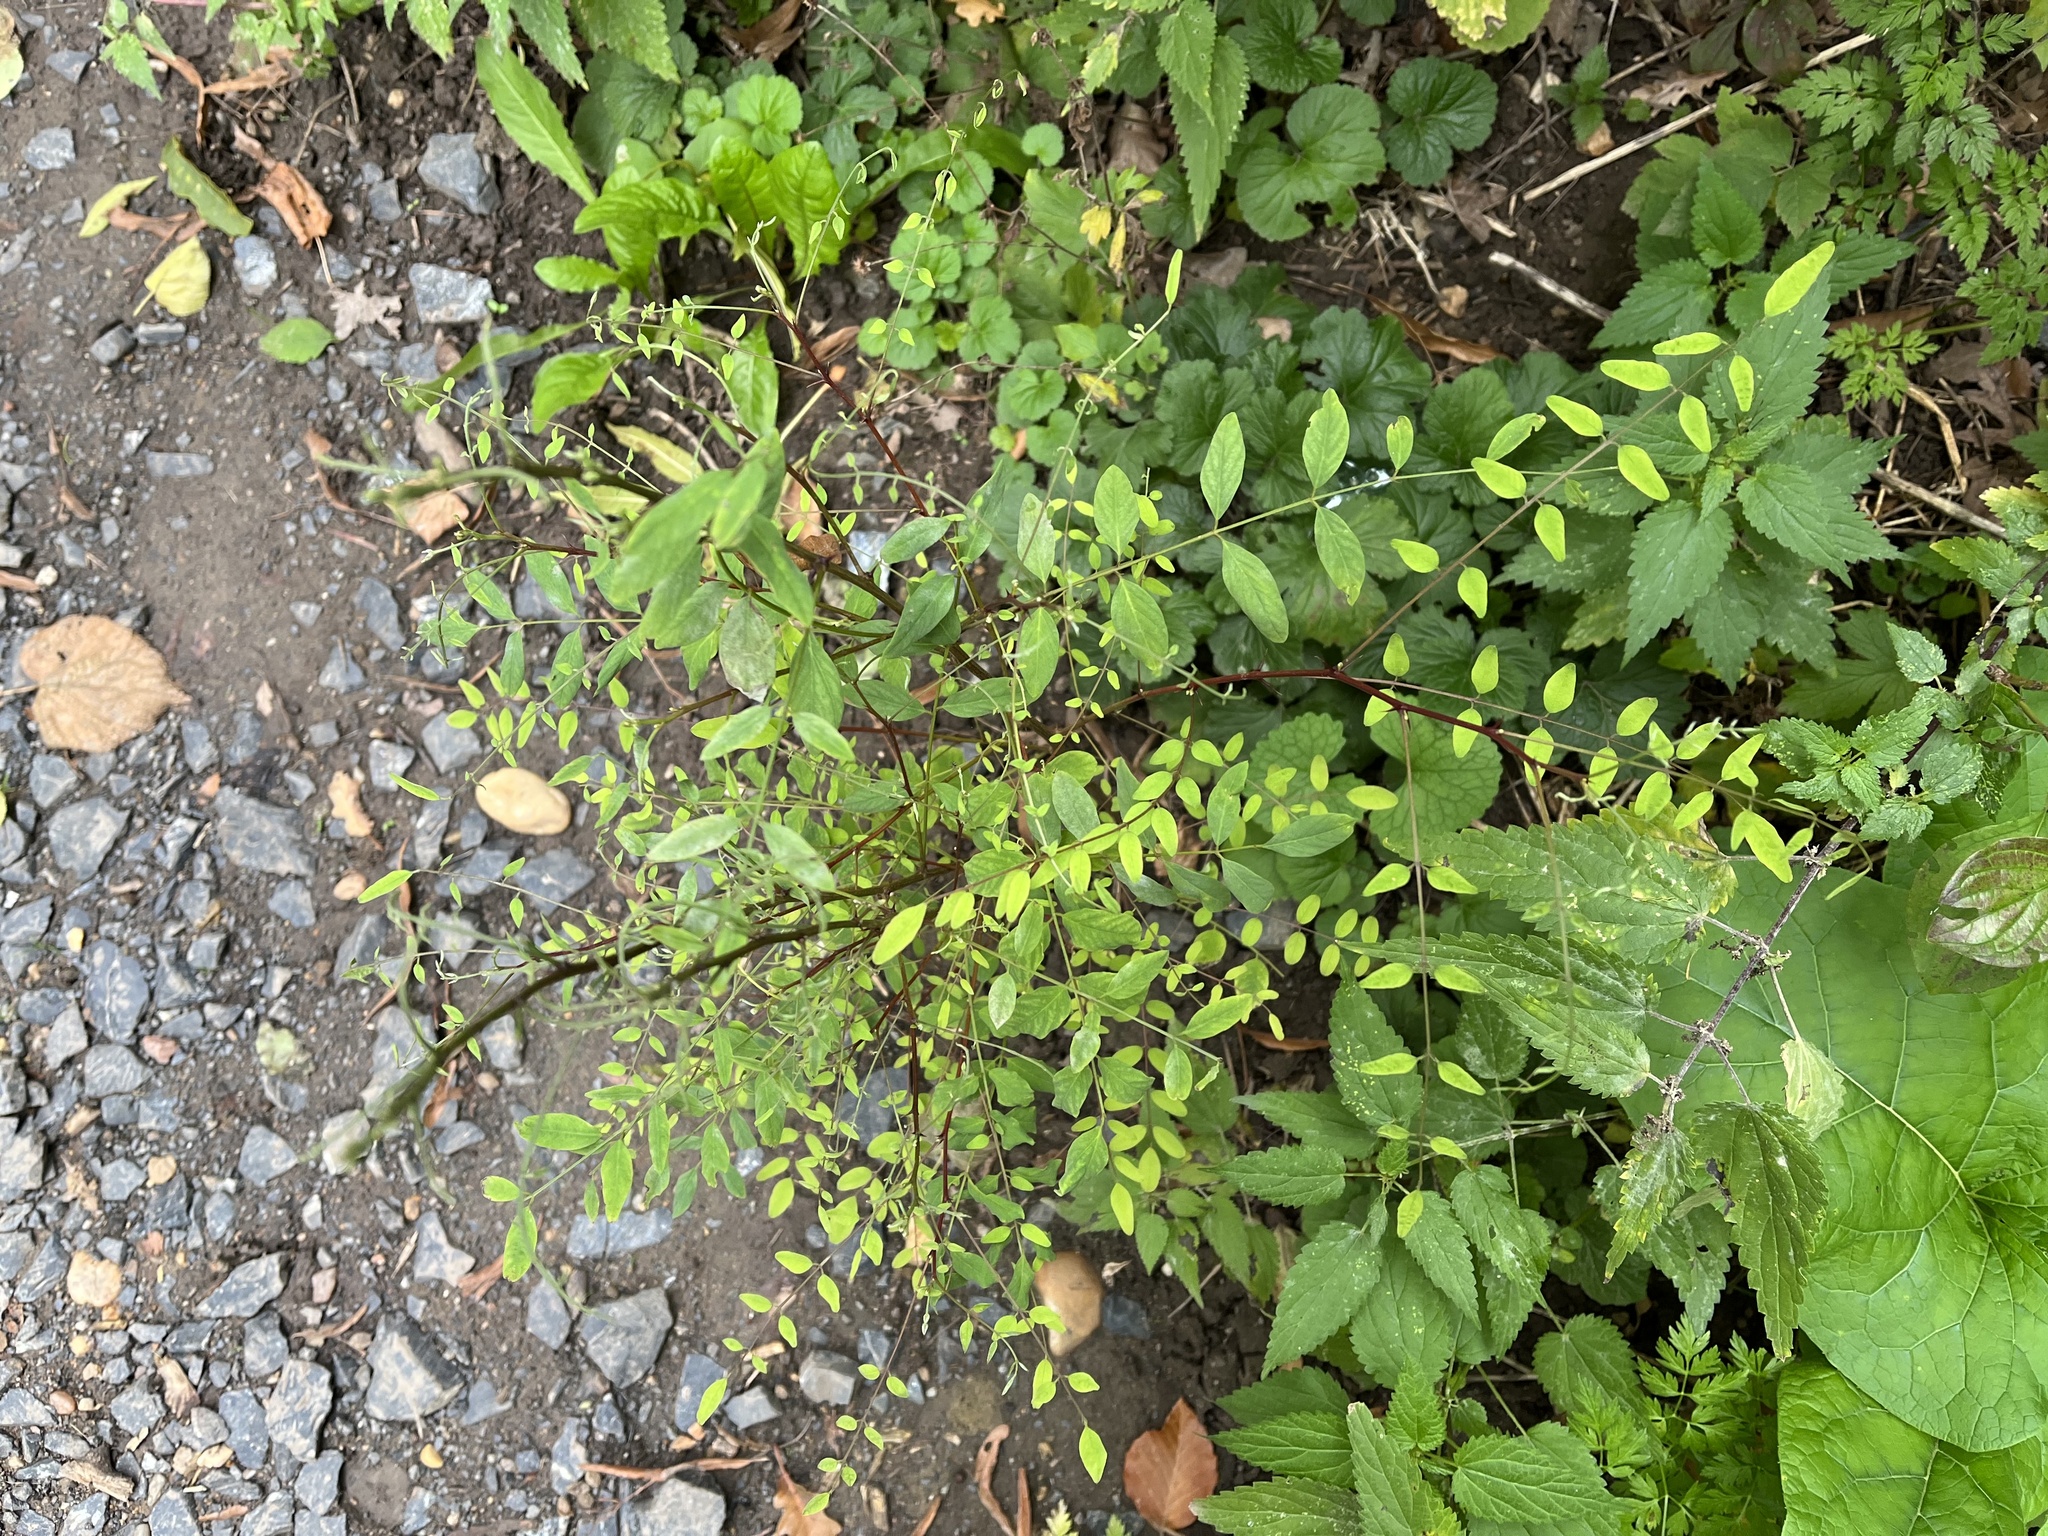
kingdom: Plantae
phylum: Tracheophyta
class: Magnoliopsida
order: Fabales
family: Fabaceae
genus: Robinia
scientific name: Robinia pseudoacacia
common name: Black locust
